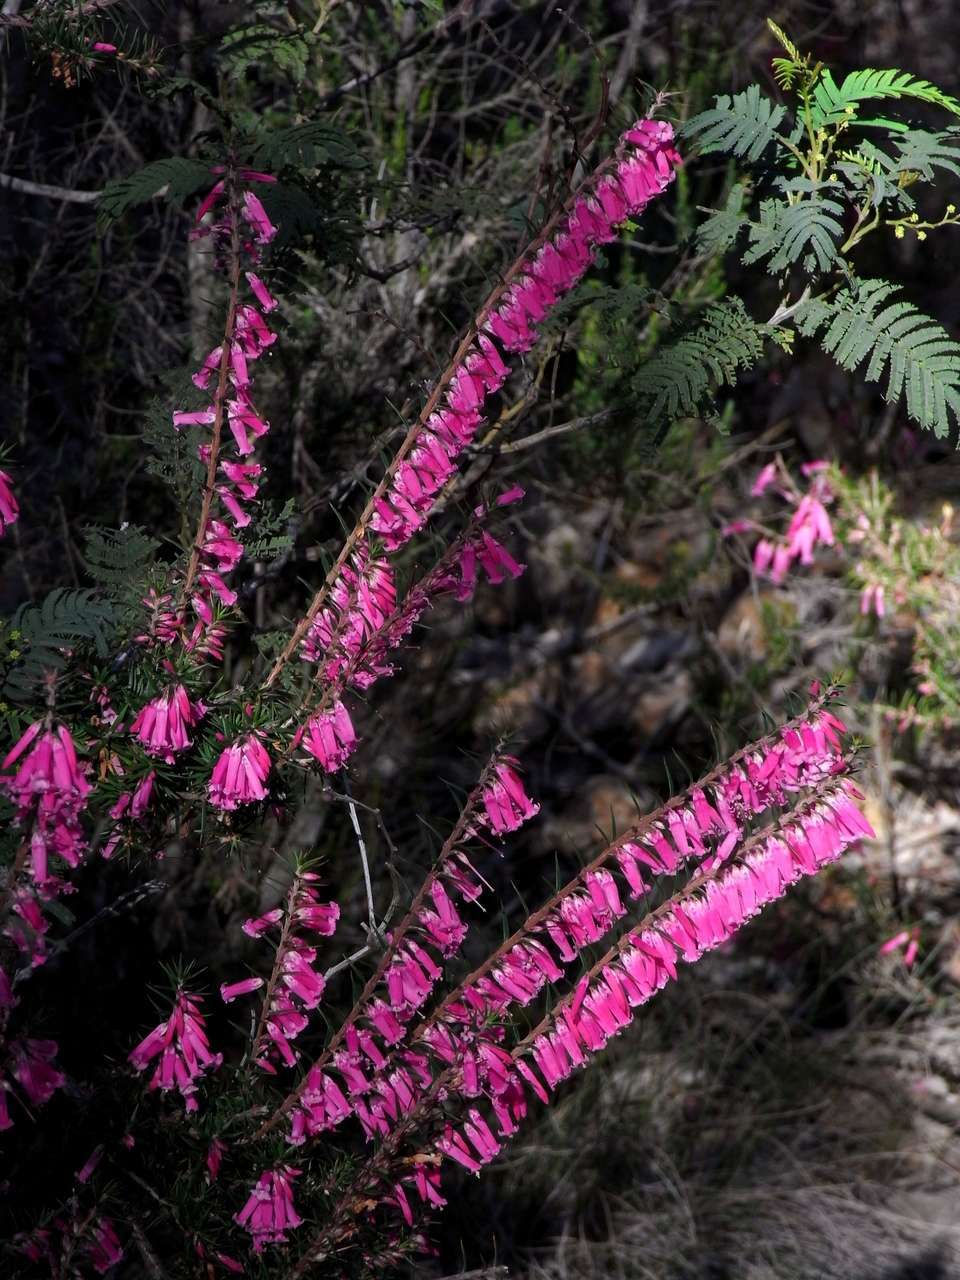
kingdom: Plantae
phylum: Tracheophyta
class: Magnoliopsida
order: Ericales
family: Ericaceae
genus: Epacris
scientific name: Epacris impressa
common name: Common-heath
